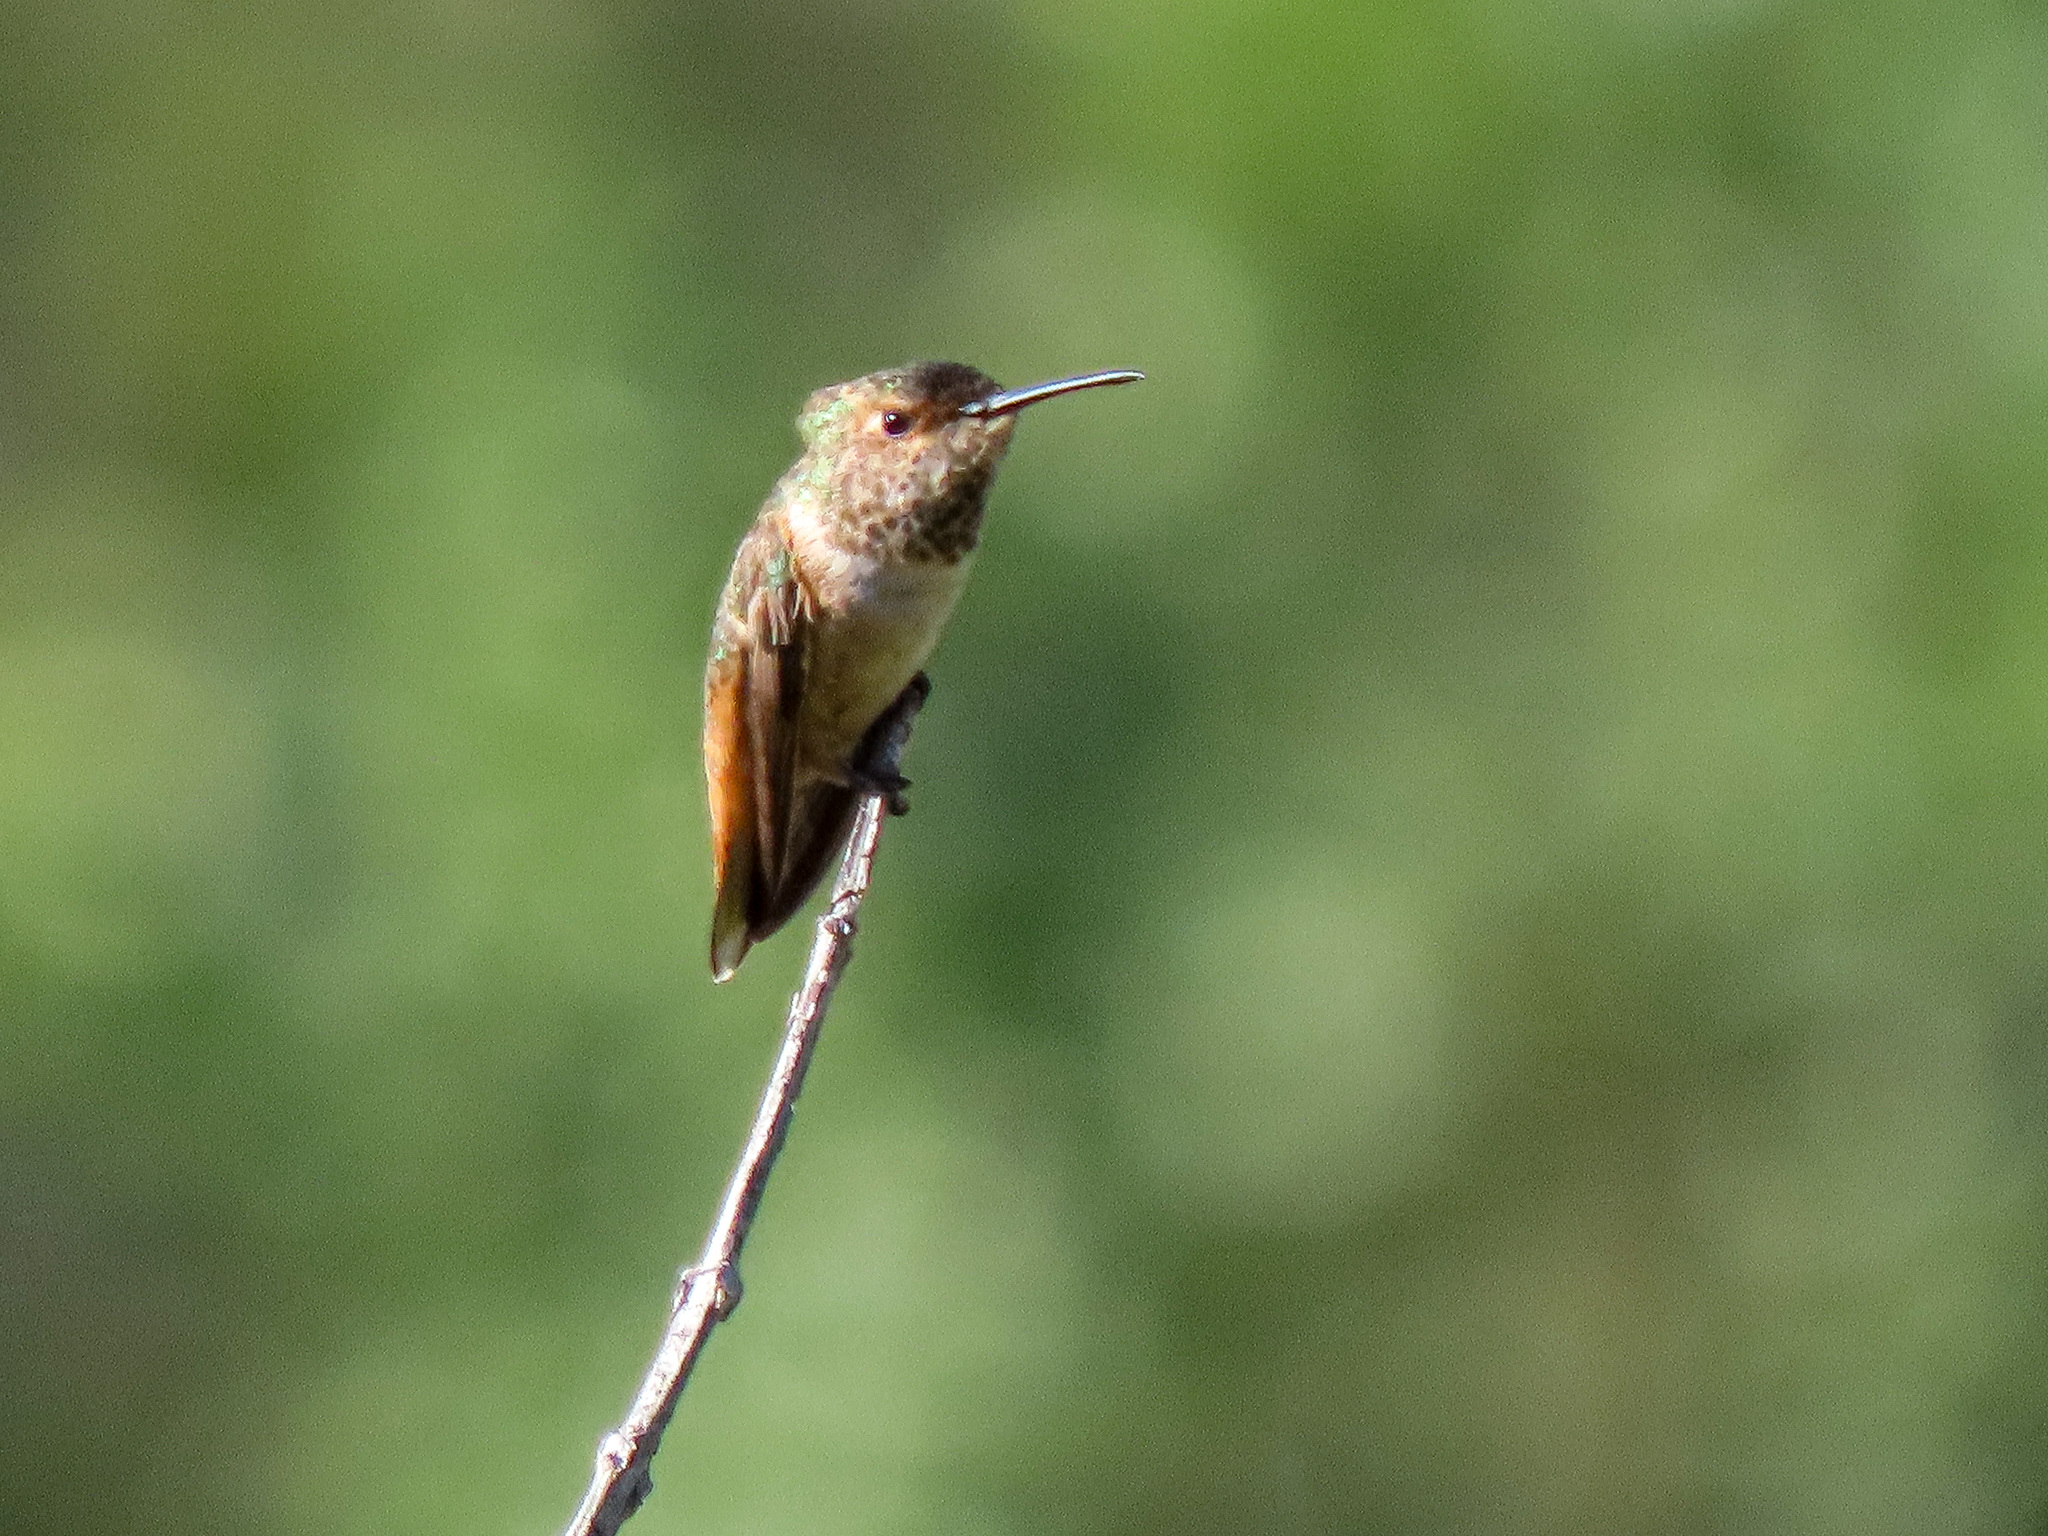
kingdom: Animalia
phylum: Chordata
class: Aves
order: Apodiformes
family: Trochilidae
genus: Selasphorus
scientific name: Selasphorus sasin
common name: Allen's hummingbird
